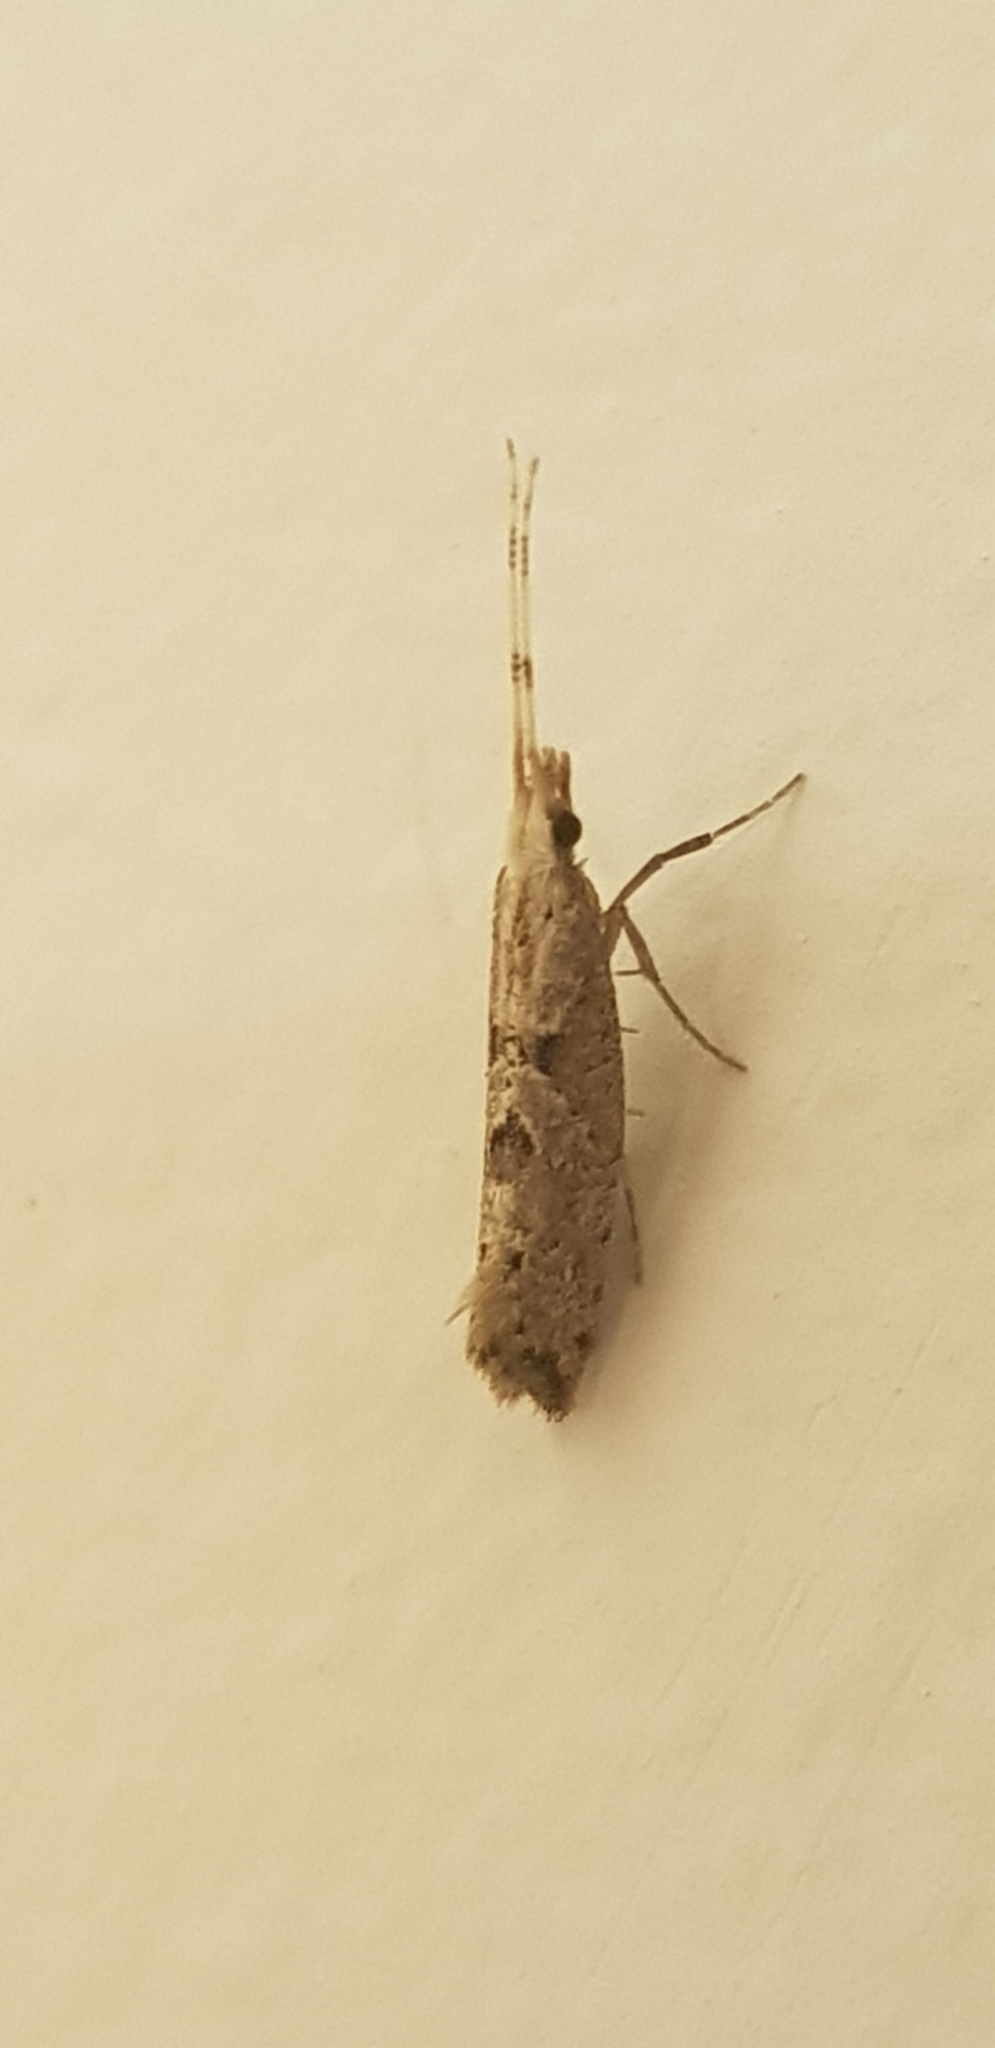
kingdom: Animalia
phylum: Arthropoda
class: Insecta
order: Lepidoptera
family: Plutellidae
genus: Leuroperna
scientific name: Leuroperna sera
